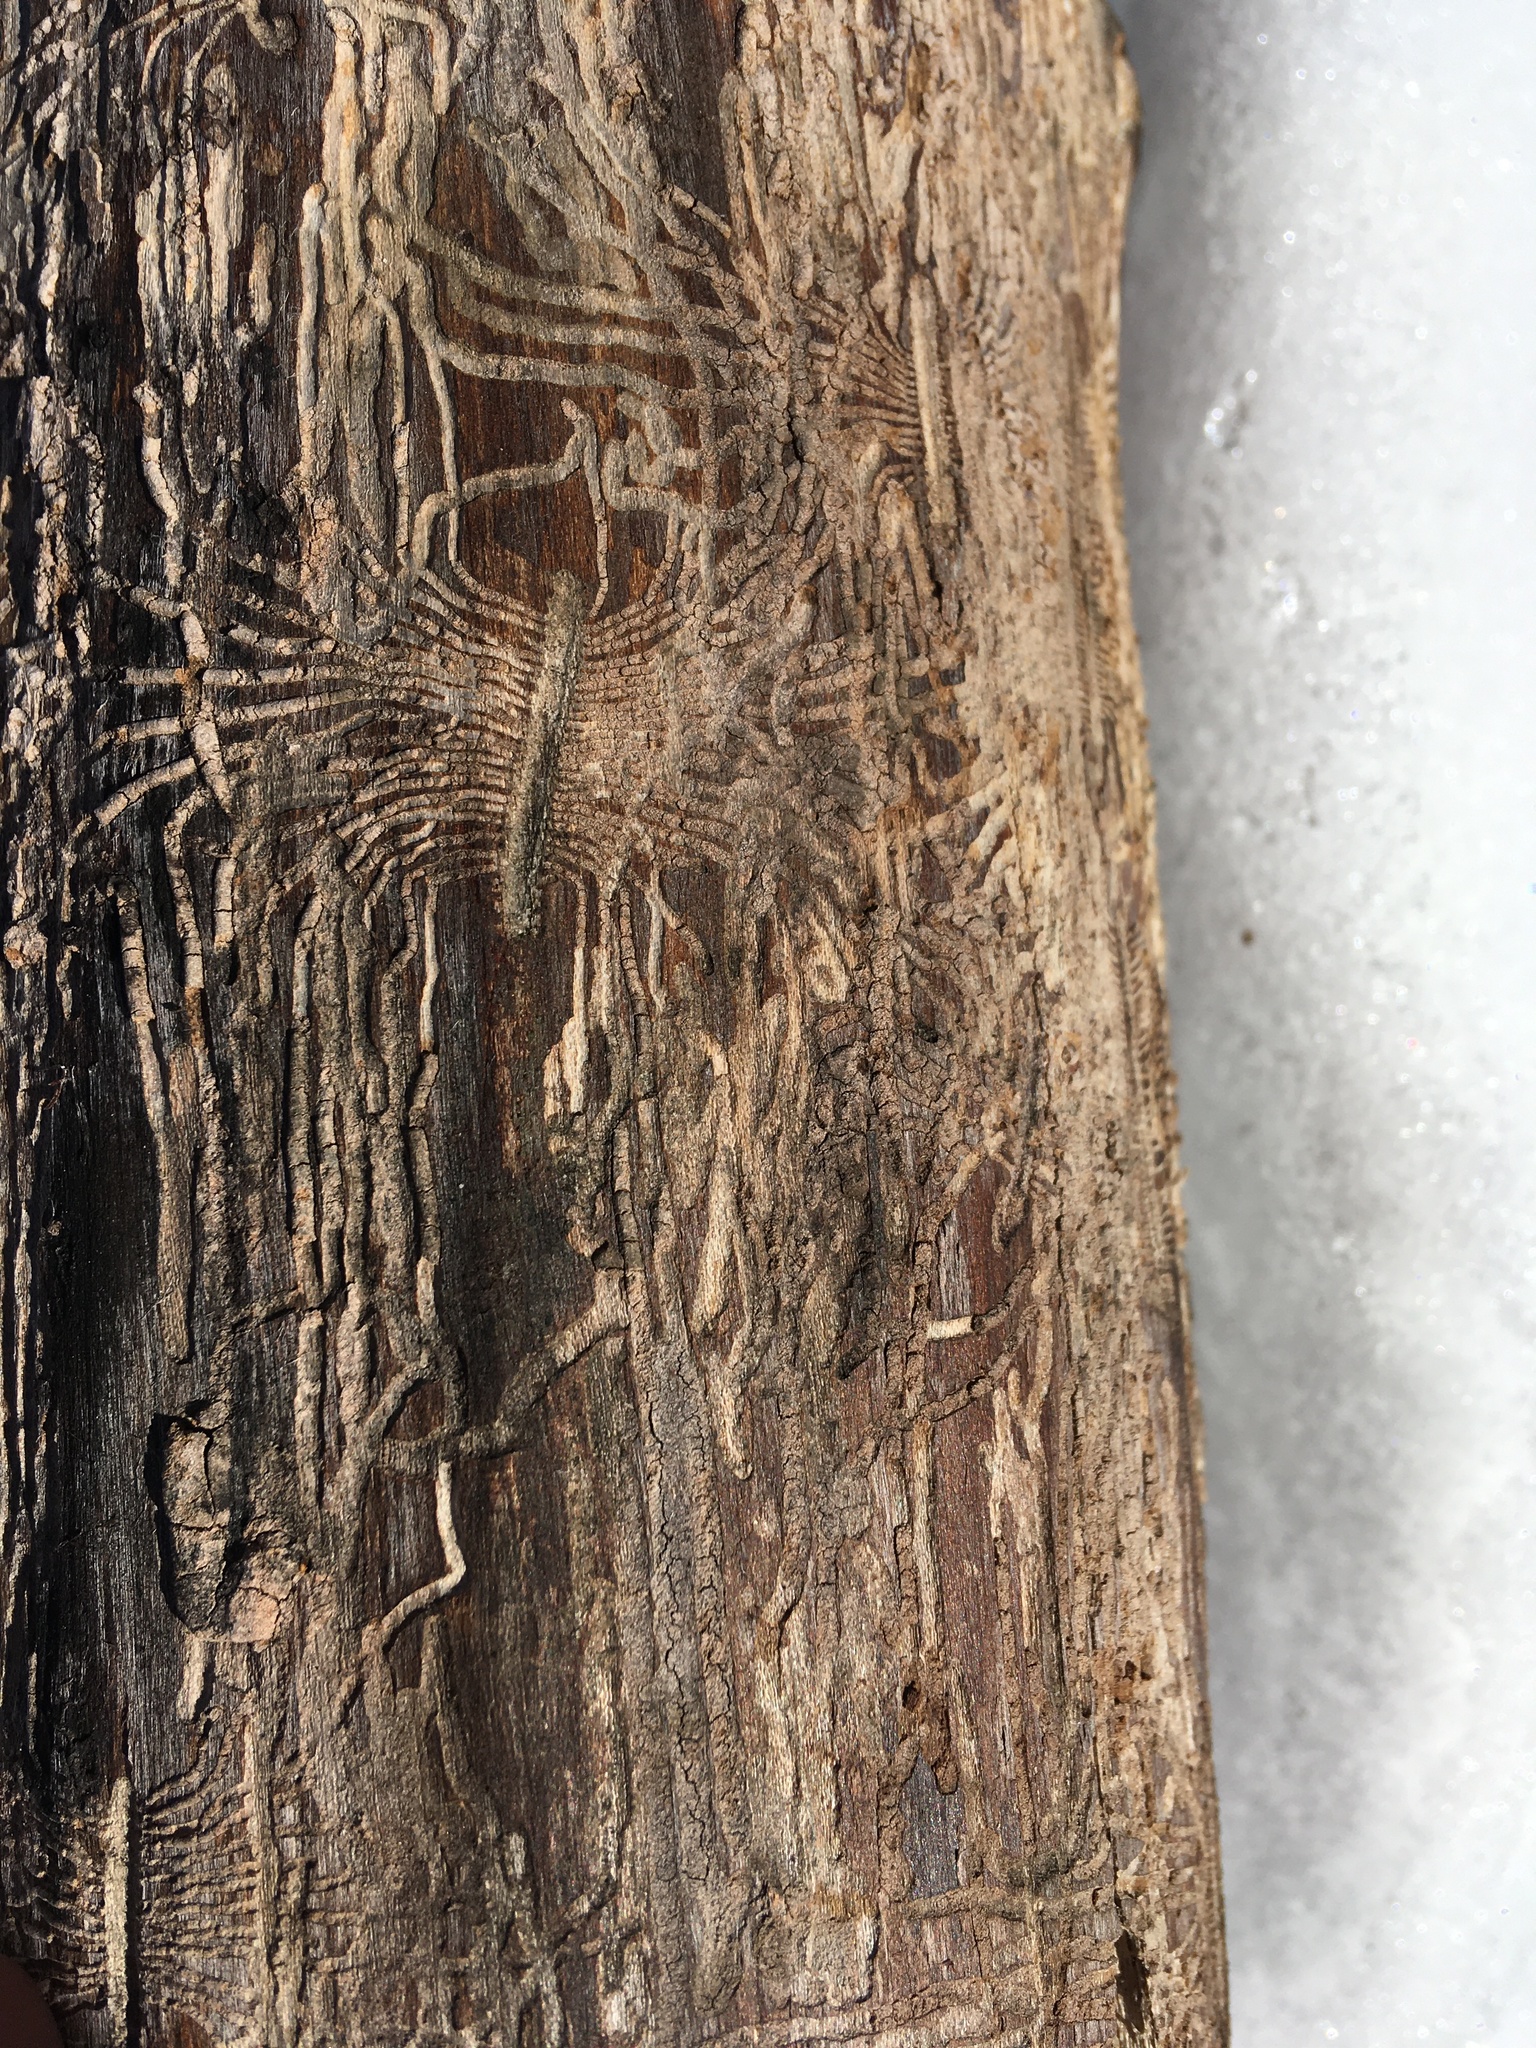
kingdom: Animalia
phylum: Arthropoda
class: Insecta
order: Coleoptera
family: Curculionidae
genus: Scolytus
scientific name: Scolytus multistriatus
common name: European elm bark beetle
